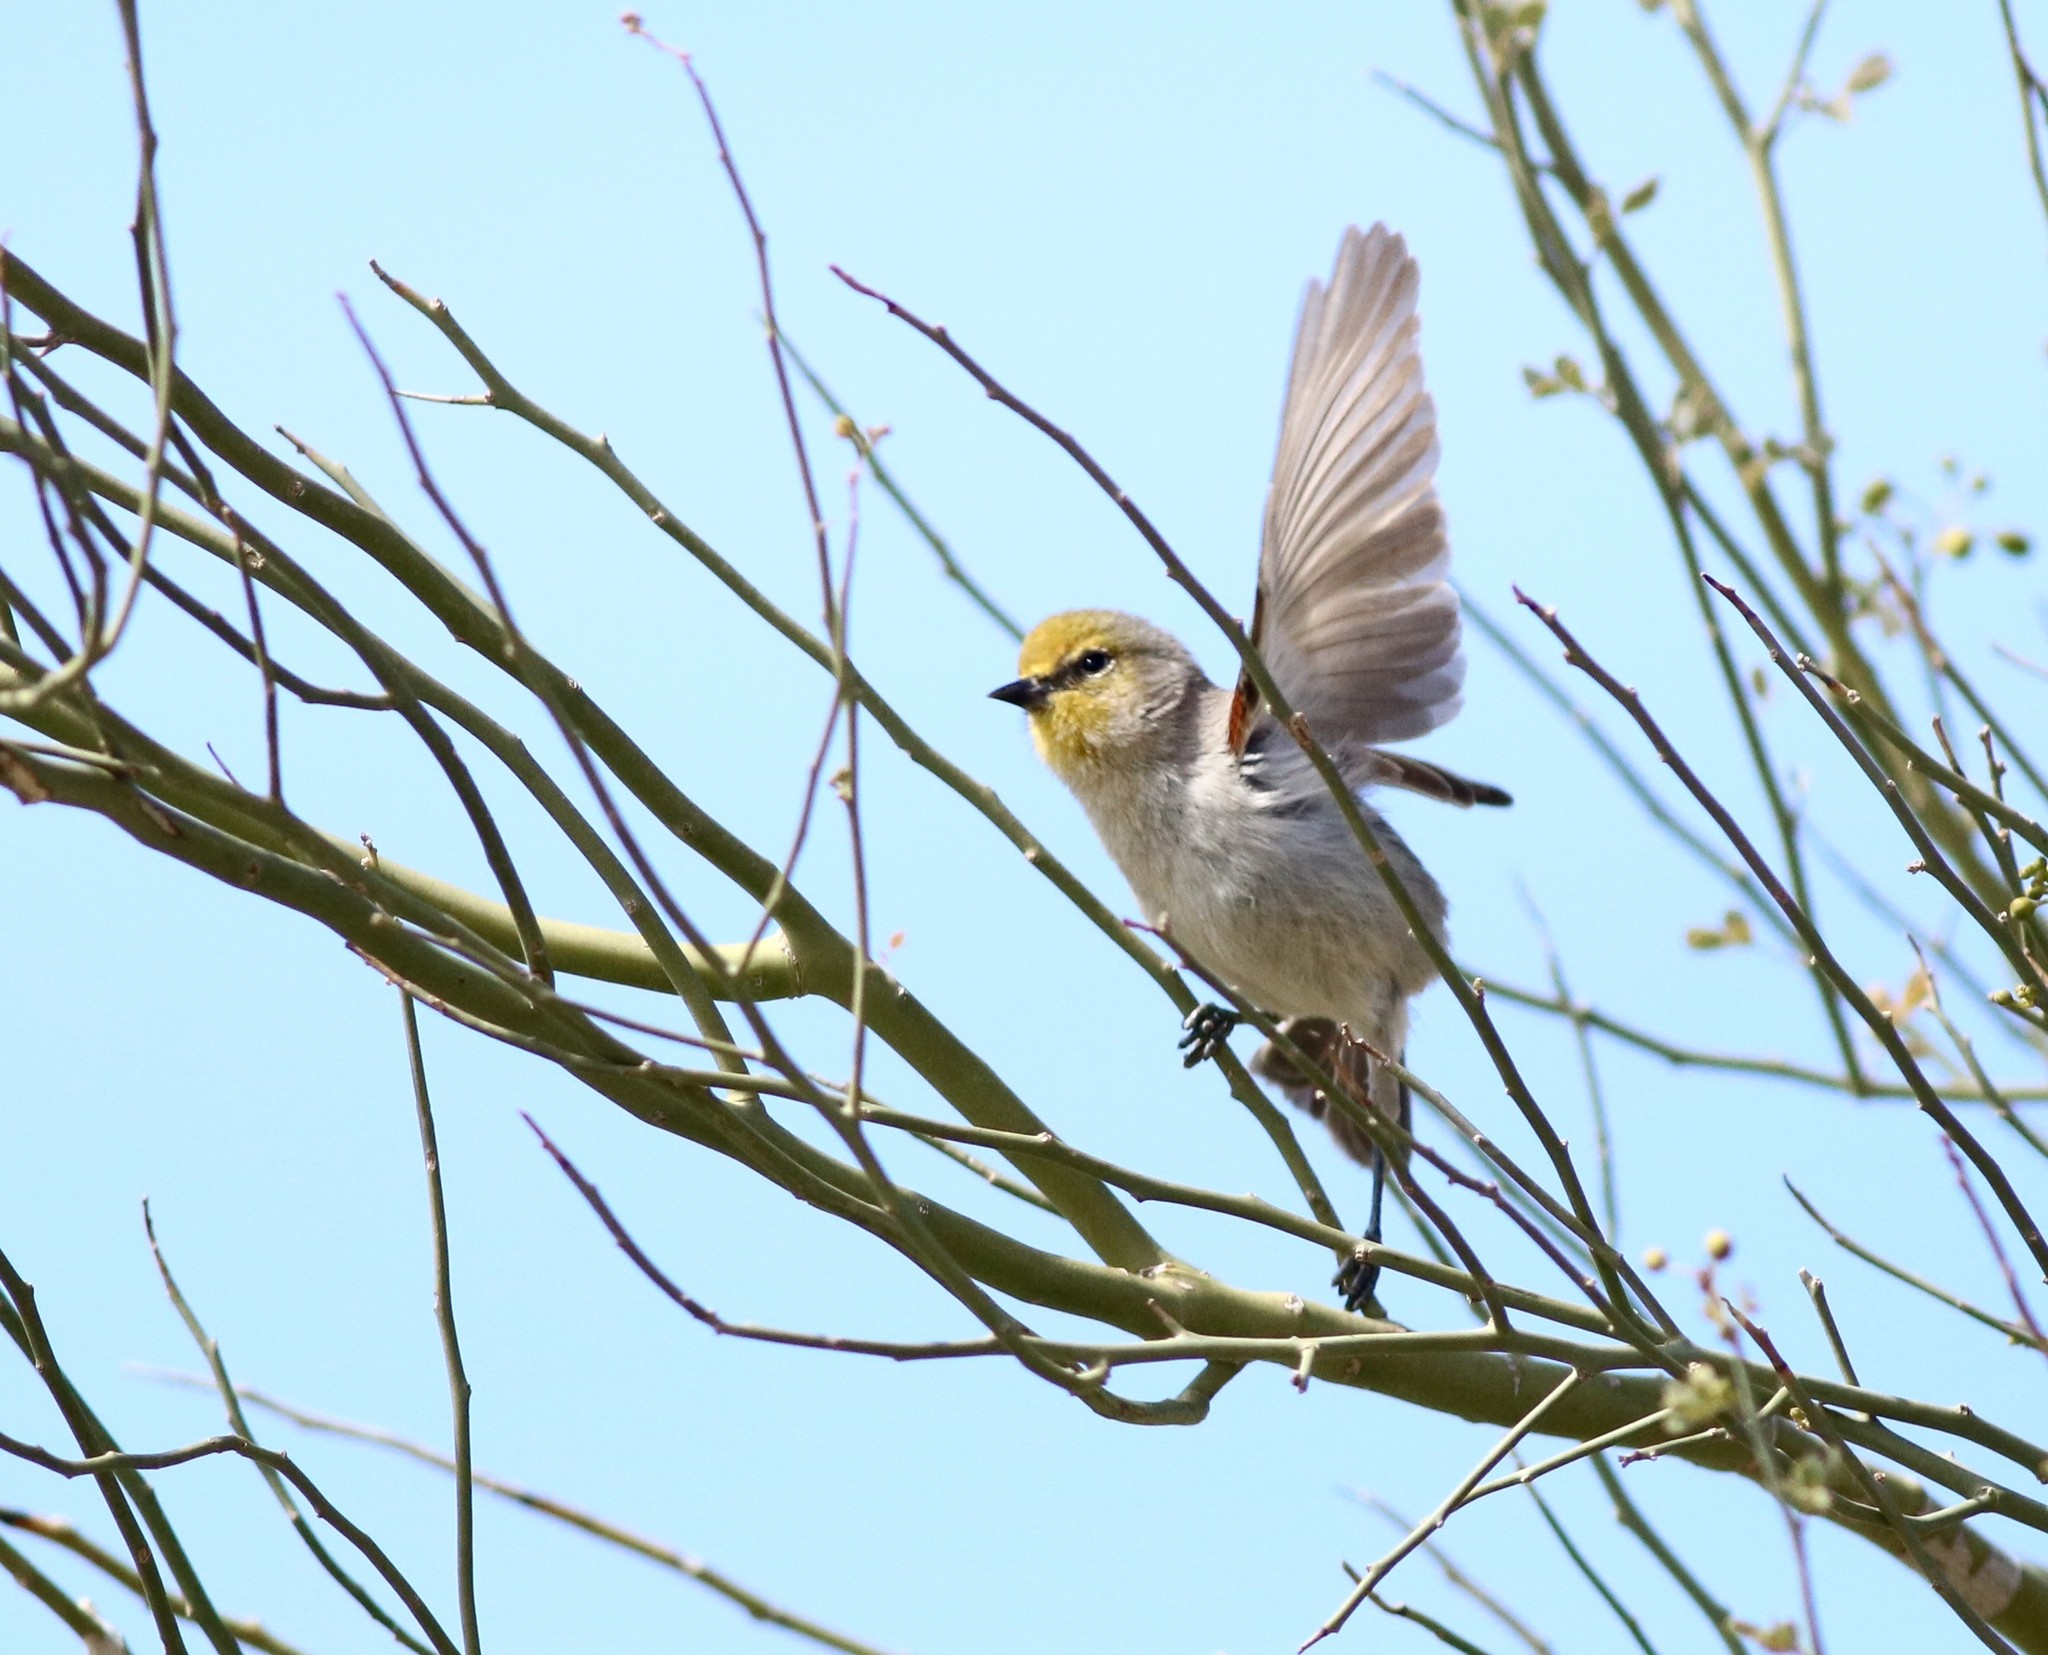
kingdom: Animalia
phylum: Chordata
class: Aves
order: Passeriformes
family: Remizidae
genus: Auriparus
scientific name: Auriparus flaviceps
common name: Verdin
